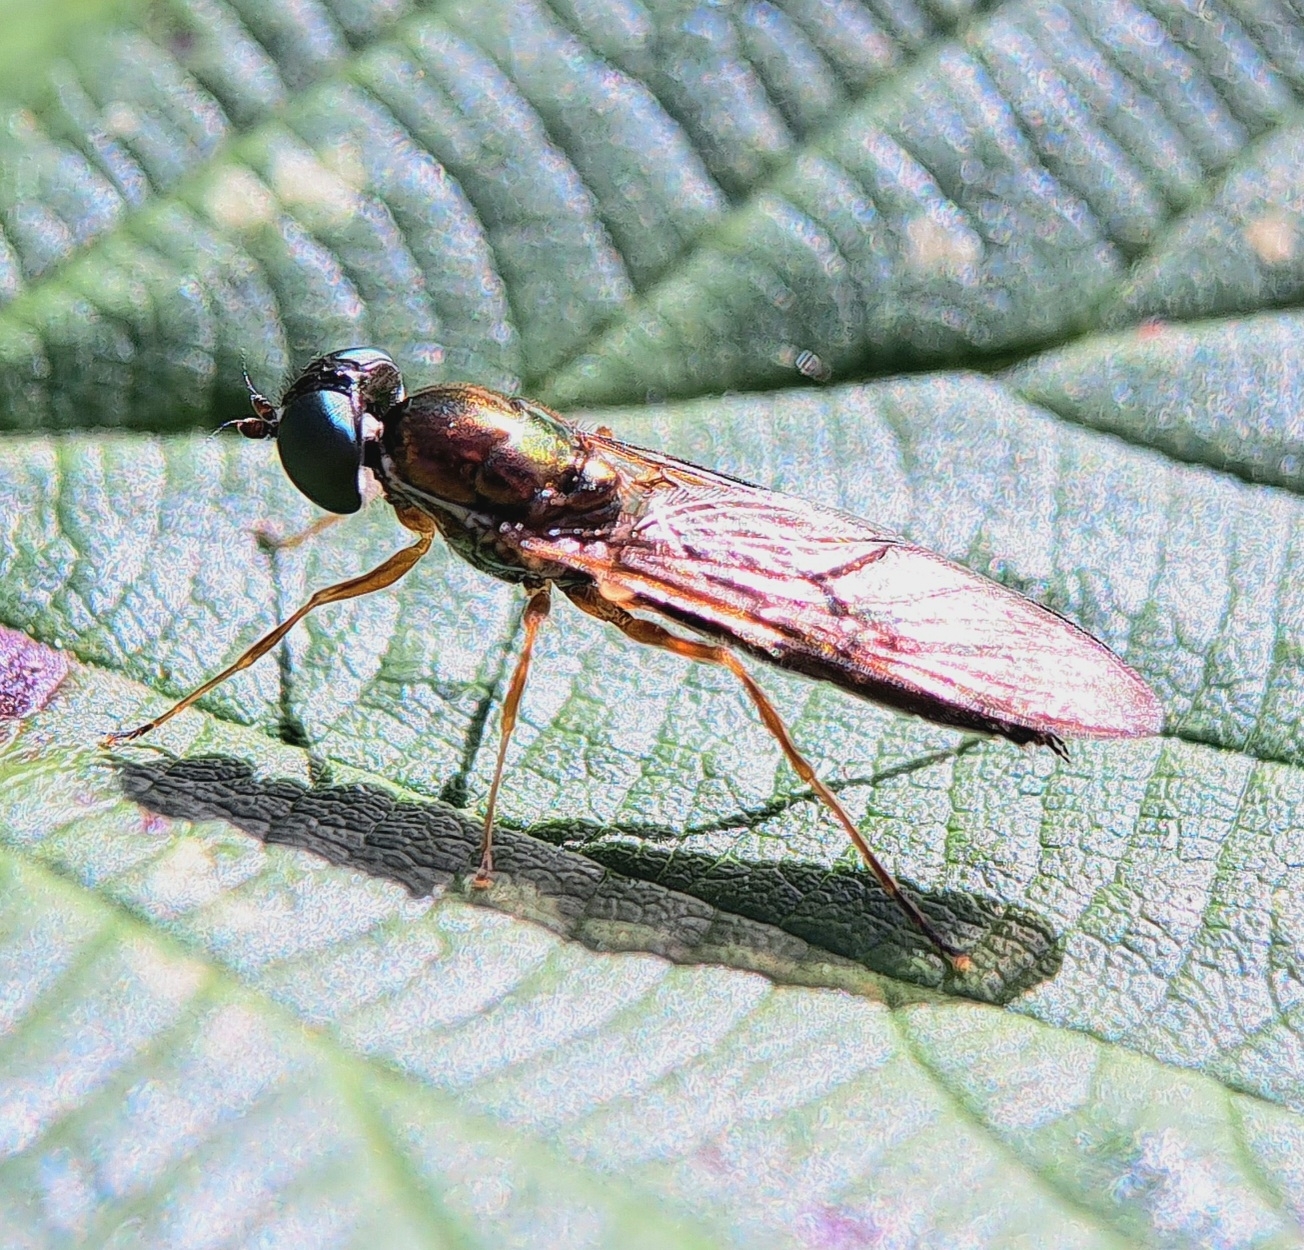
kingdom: Animalia
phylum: Arthropoda
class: Insecta
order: Diptera
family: Stratiomyidae
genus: Sargus
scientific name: Sargus bipunctatus
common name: Twin-spot centurion
